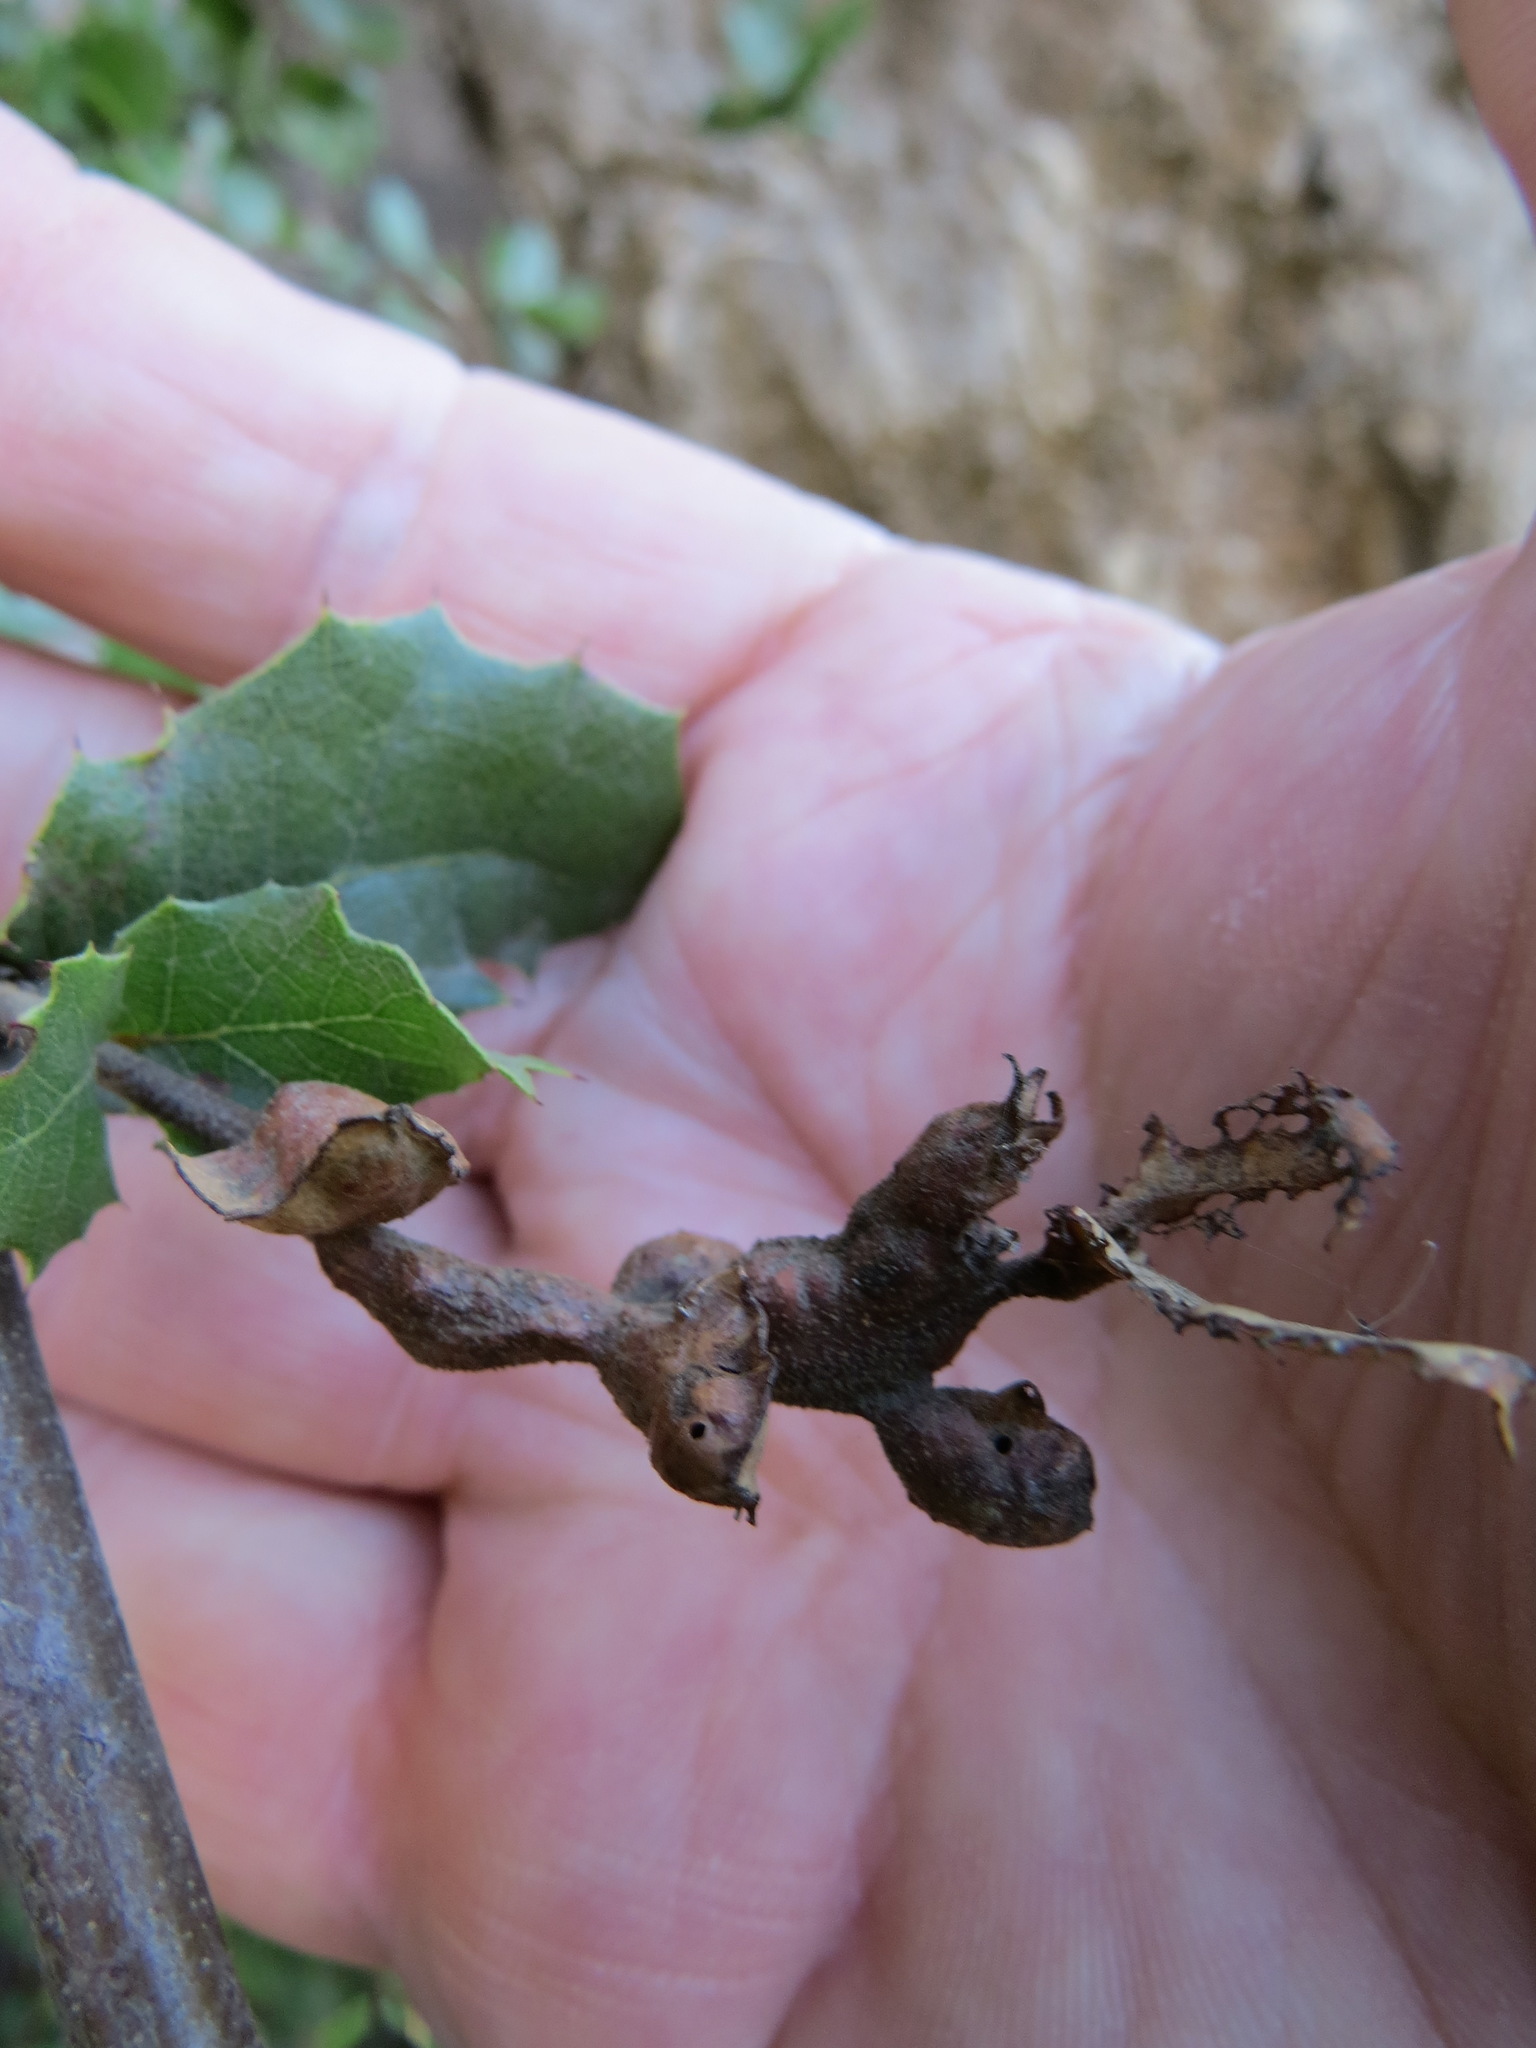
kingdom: Animalia
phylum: Arthropoda
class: Insecta
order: Hymenoptera
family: Cynipidae
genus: Melikaiella
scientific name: Melikaiella
